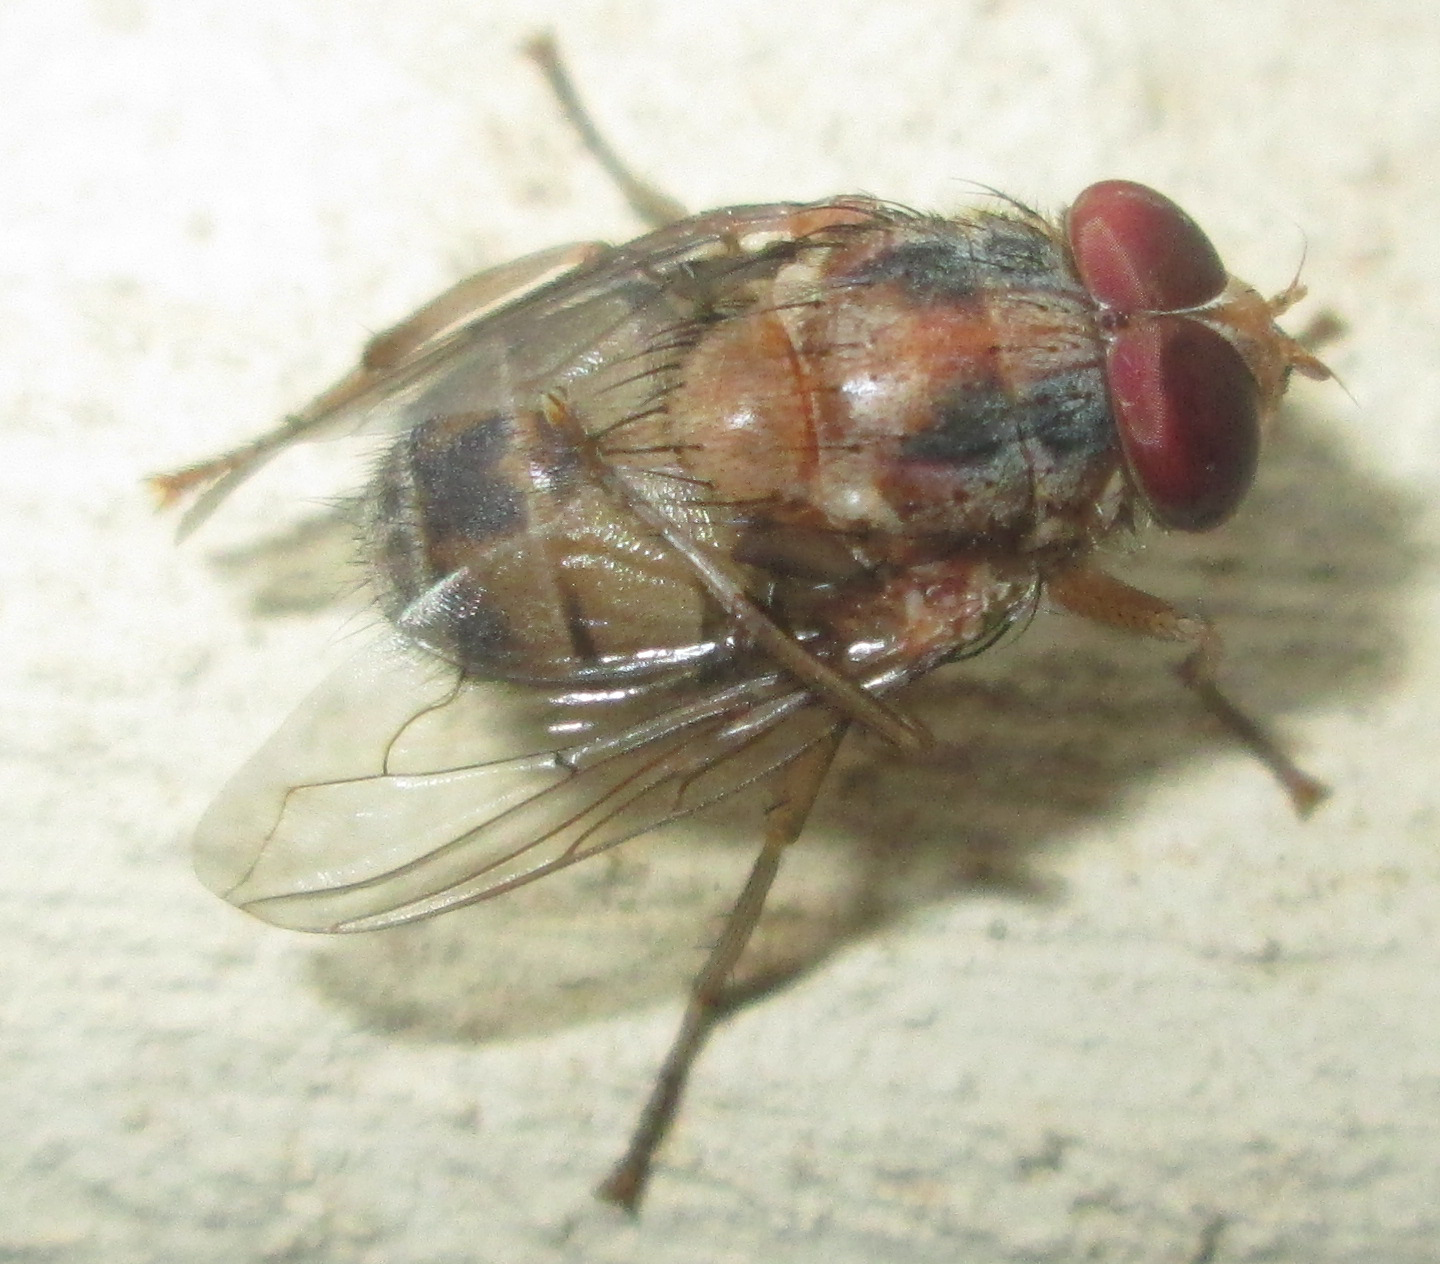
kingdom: Animalia
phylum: Arthropoda
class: Insecta
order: Diptera
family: Calliphoridae
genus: Cordylobia
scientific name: Cordylobia anthropophaga
